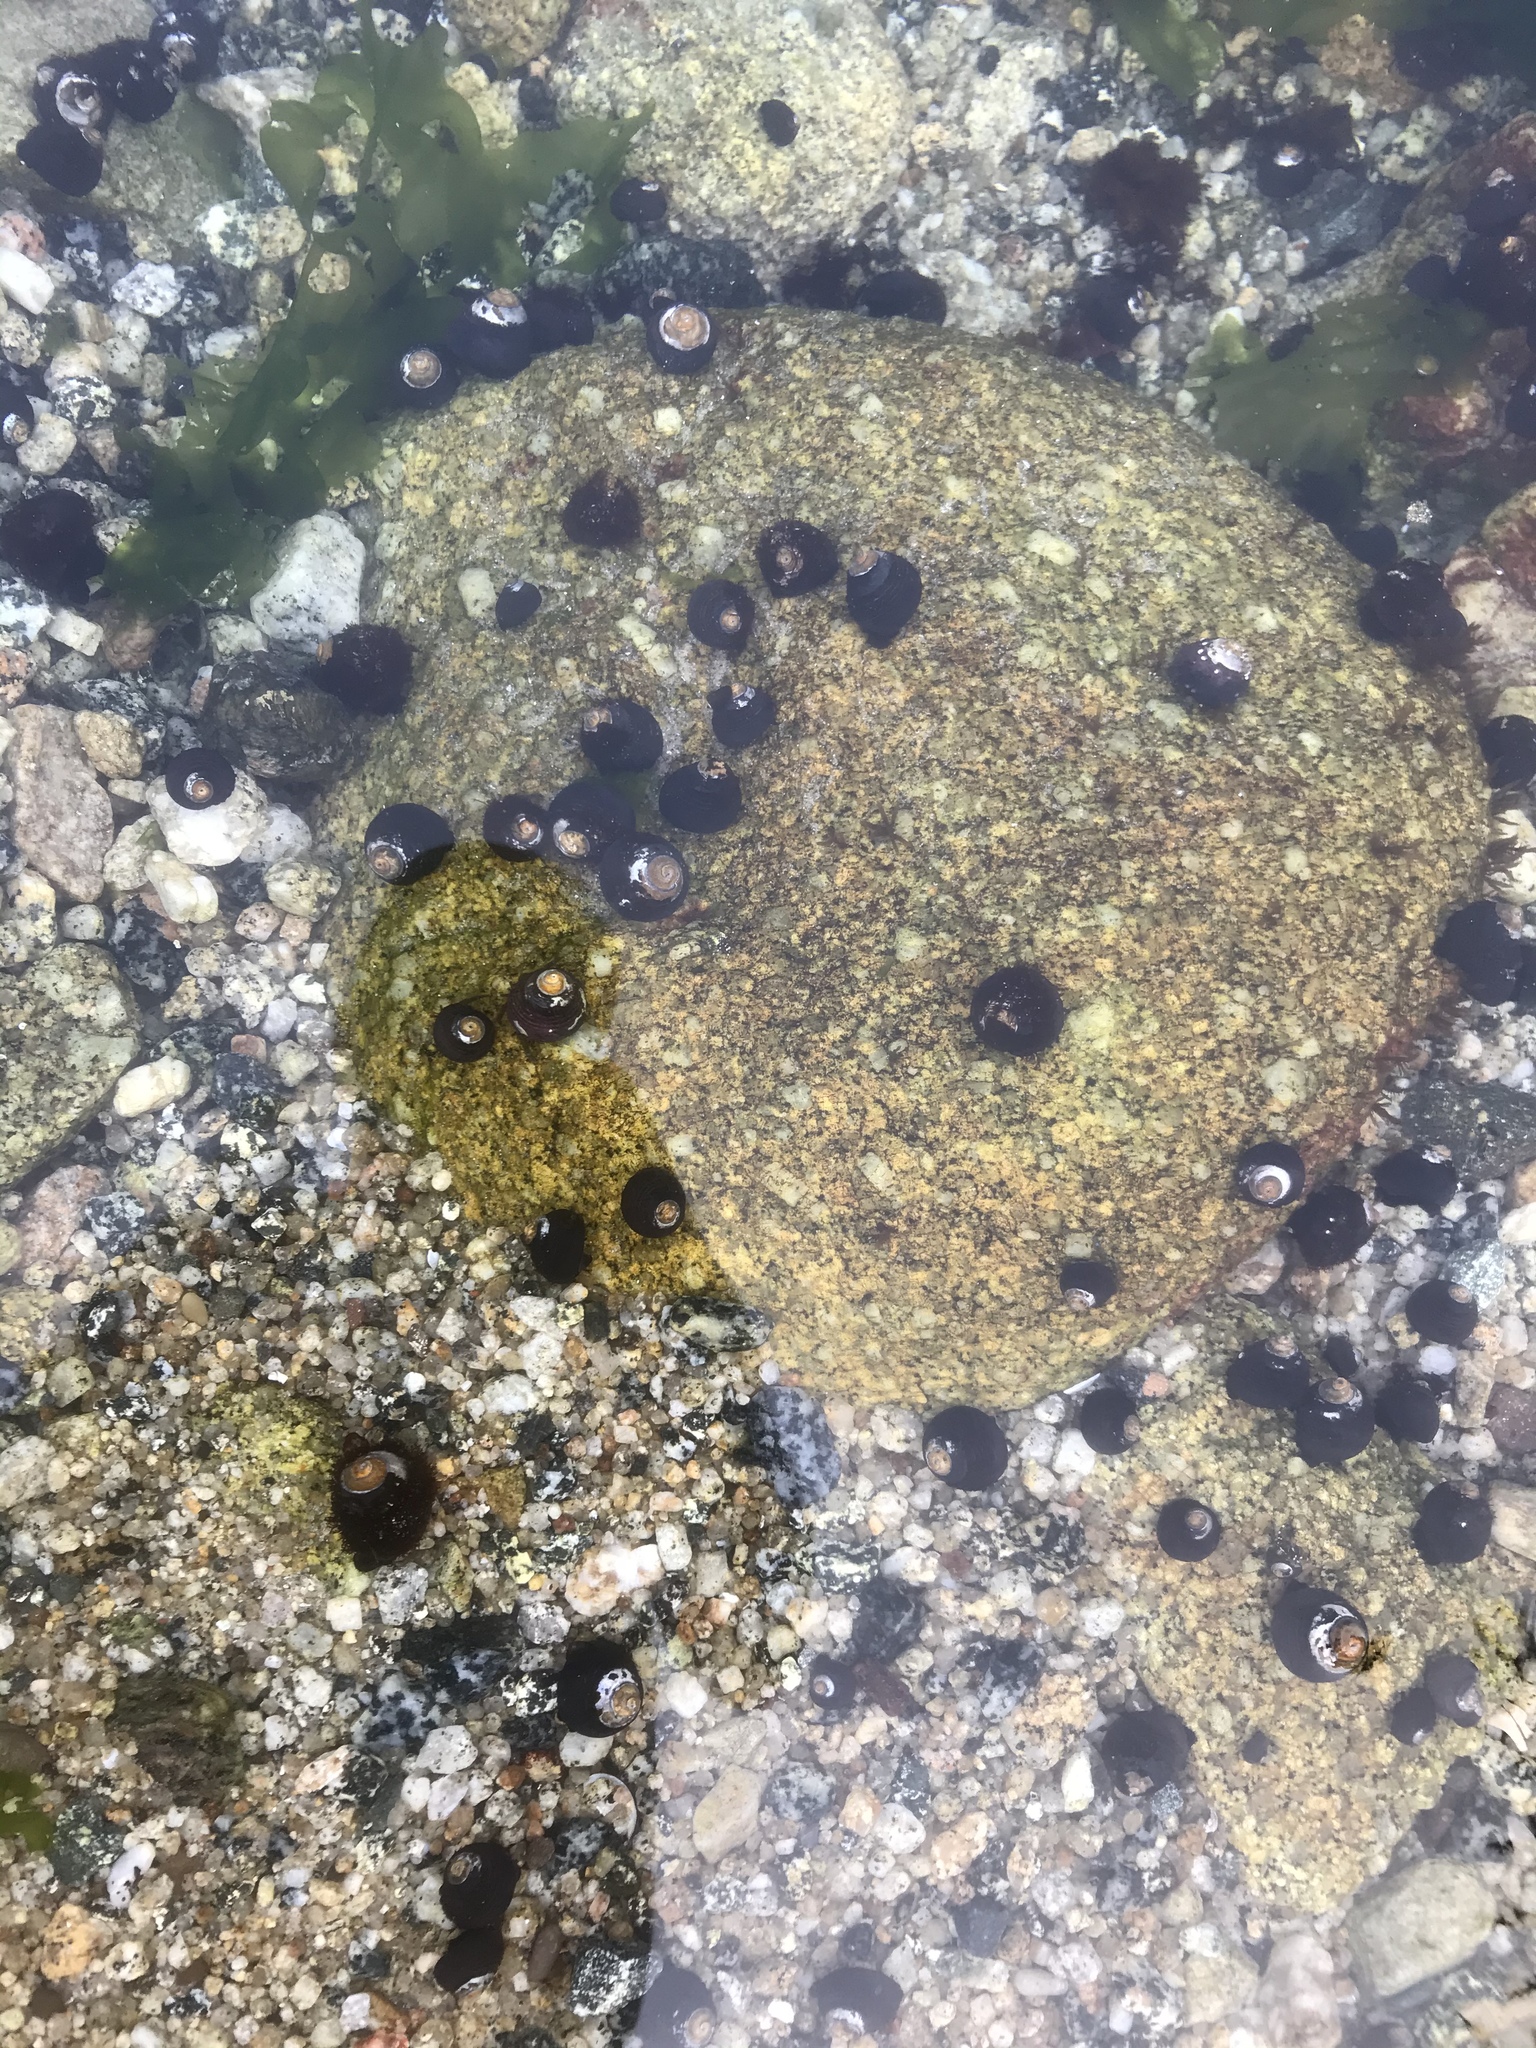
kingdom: Animalia
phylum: Mollusca
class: Gastropoda
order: Trochida
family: Tegulidae
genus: Tegula
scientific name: Tegula funebralis
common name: Black tegula
